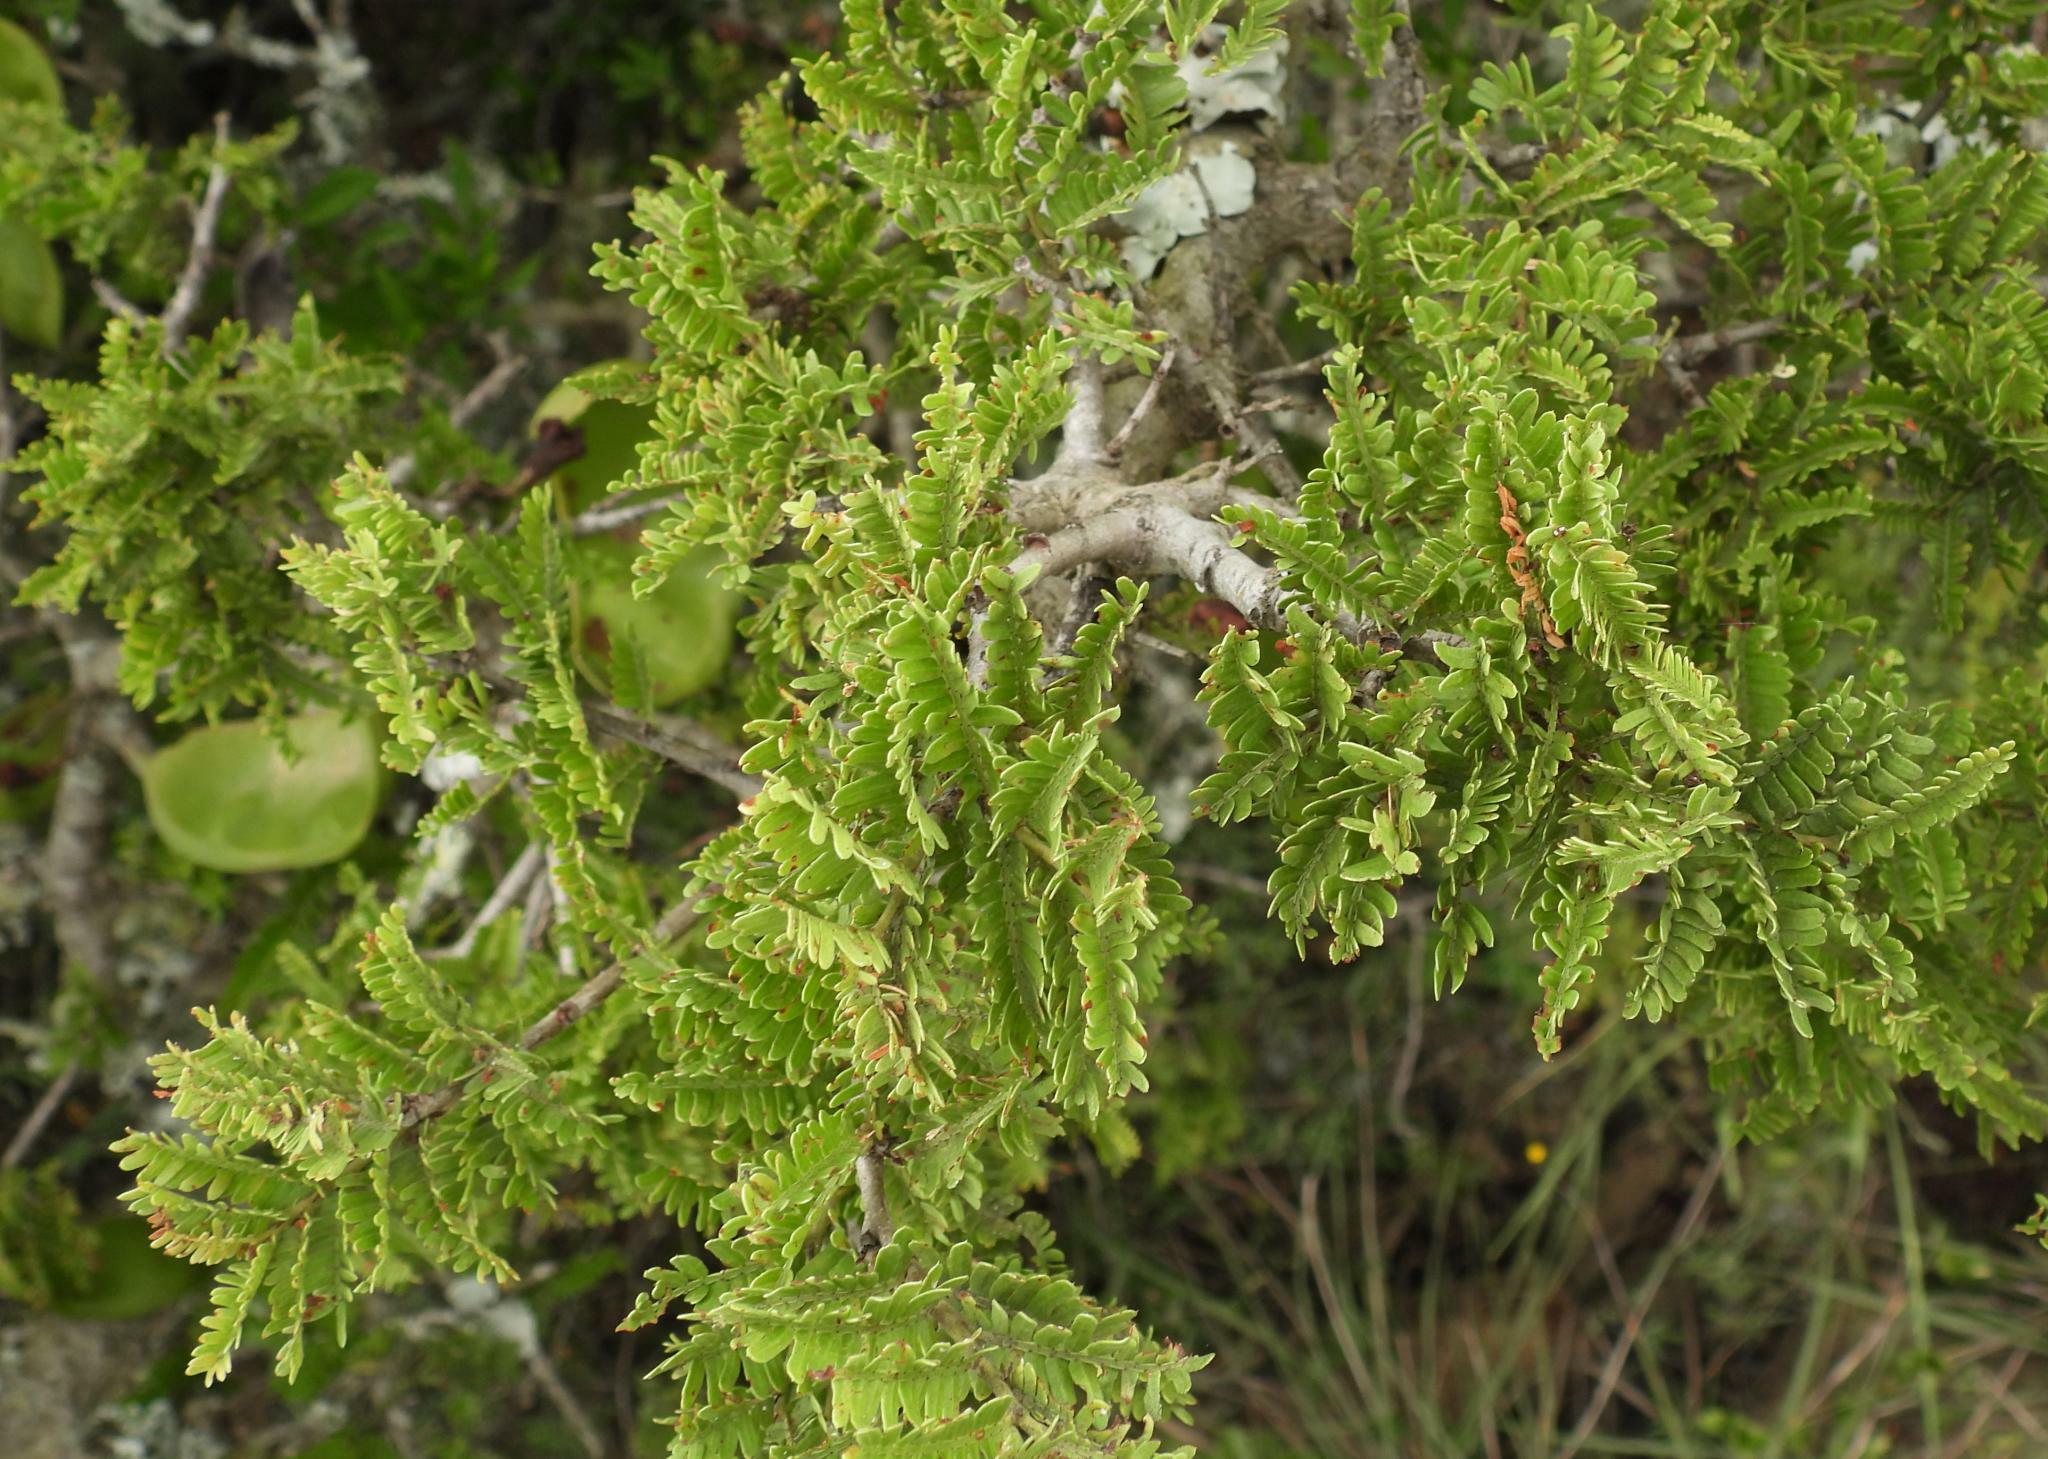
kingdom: Plantae
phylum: Tracheophyta
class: Magnoliopsida
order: Fabales
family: Fabaceae
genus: Schotia
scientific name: Schotia afra
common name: Hottentot's bean
